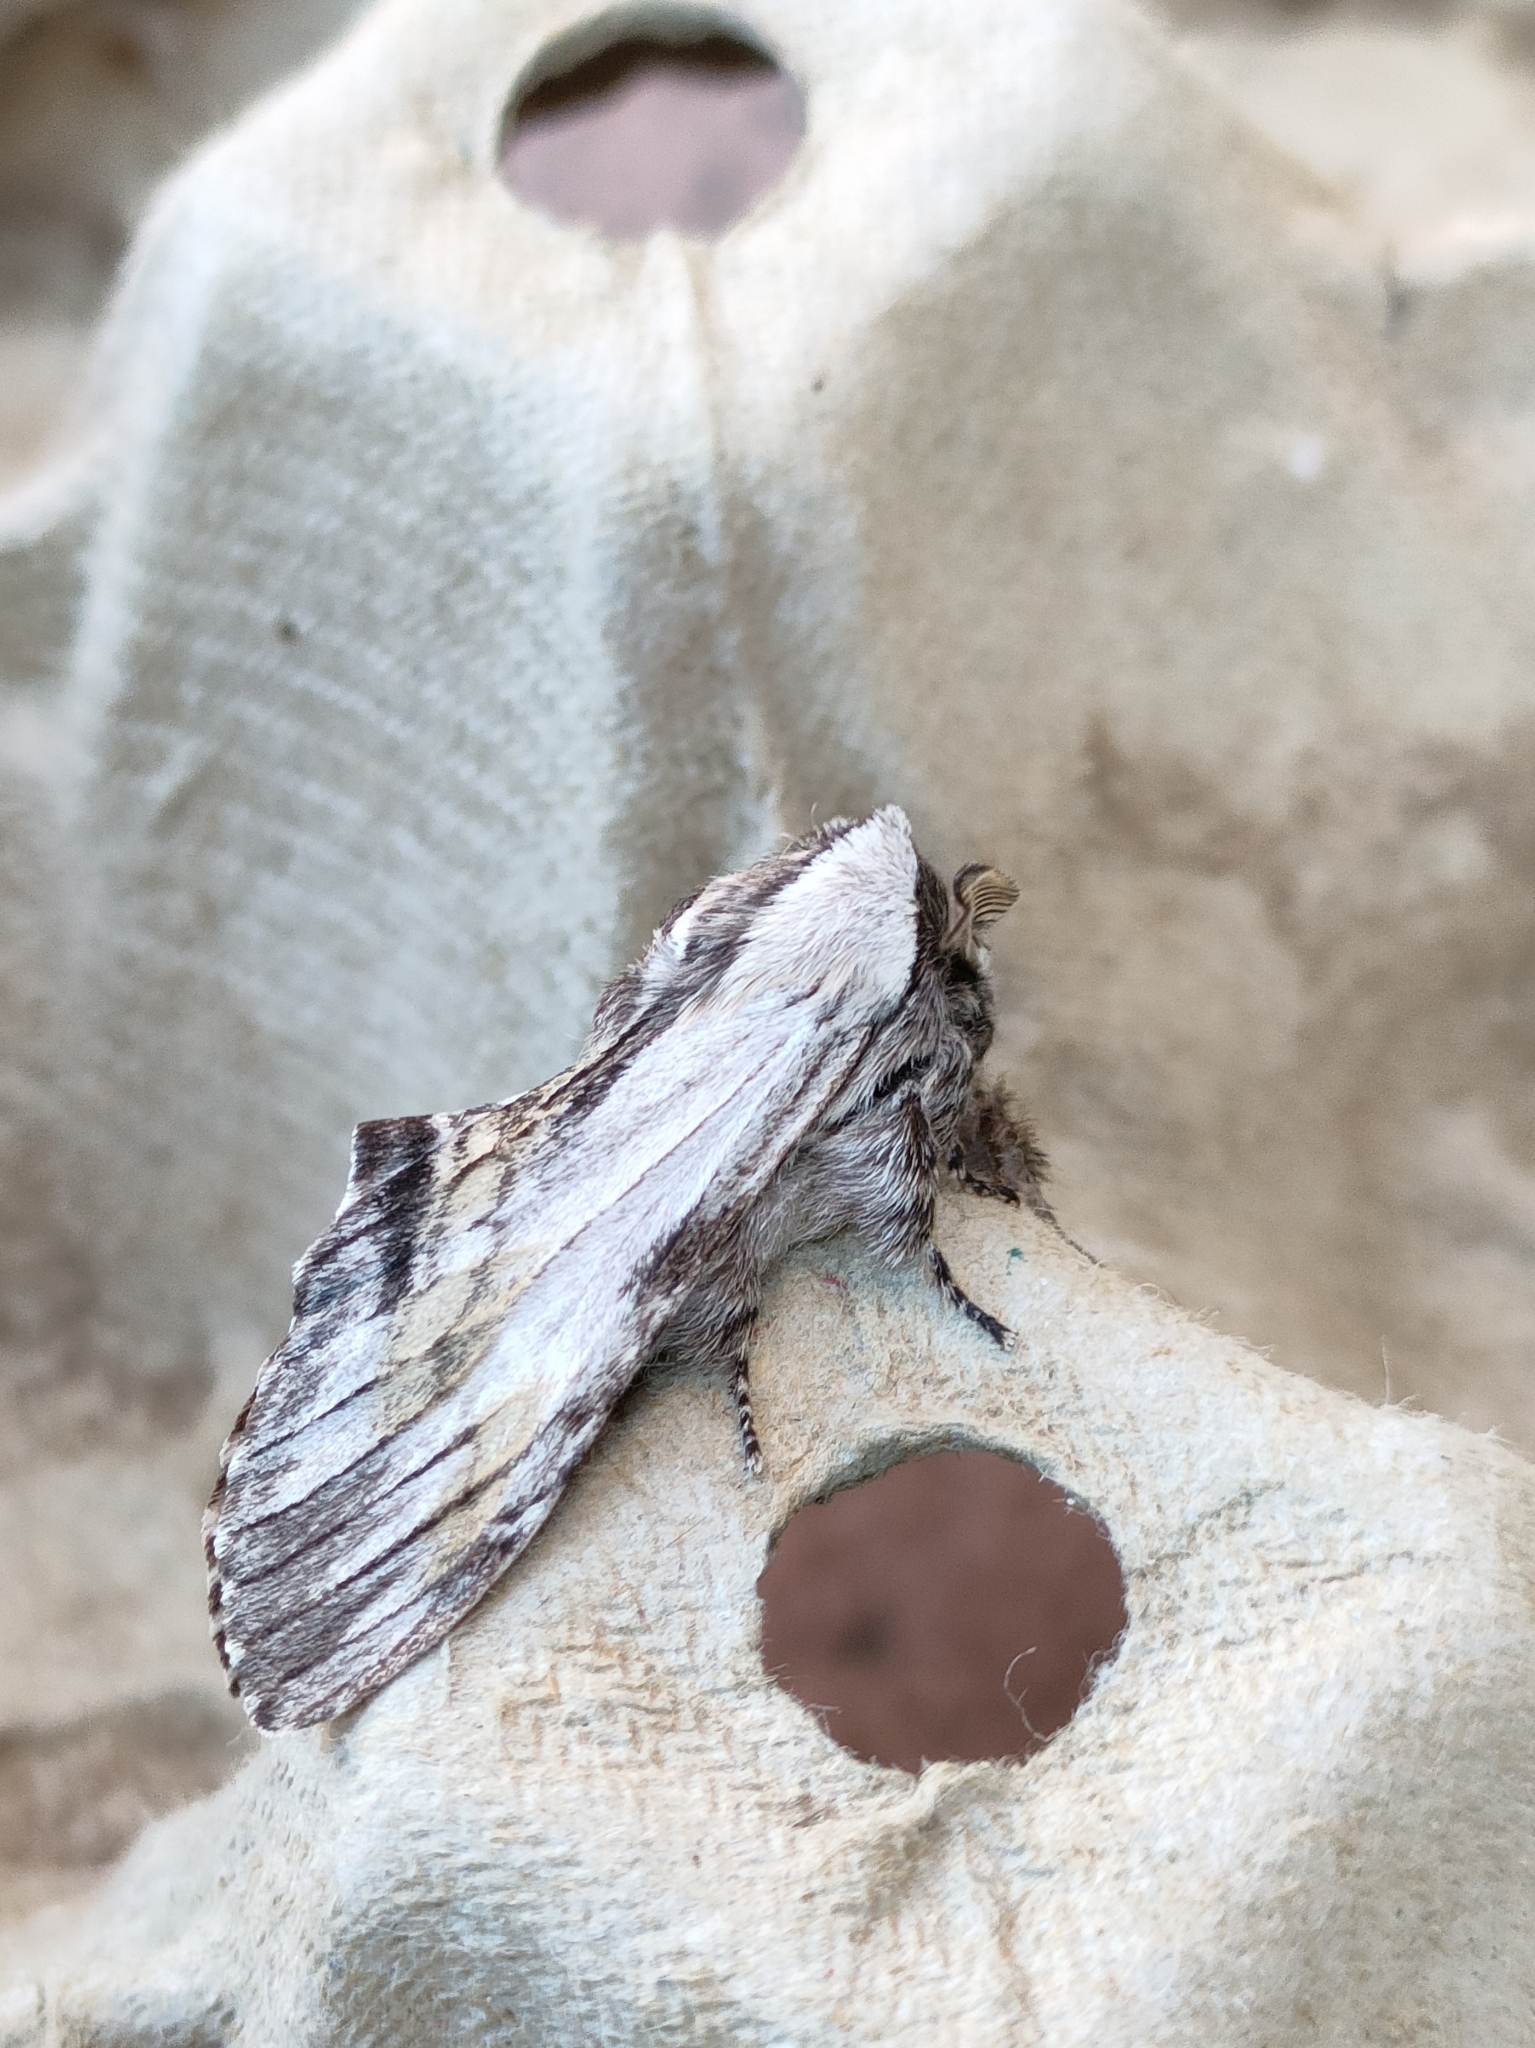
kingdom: Animalia
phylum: Arthropoda
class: Insecta
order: Lepidoptera
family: Notodontidae
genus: Harpyia
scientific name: Harpyia milhauseri
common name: Tawny prominent
